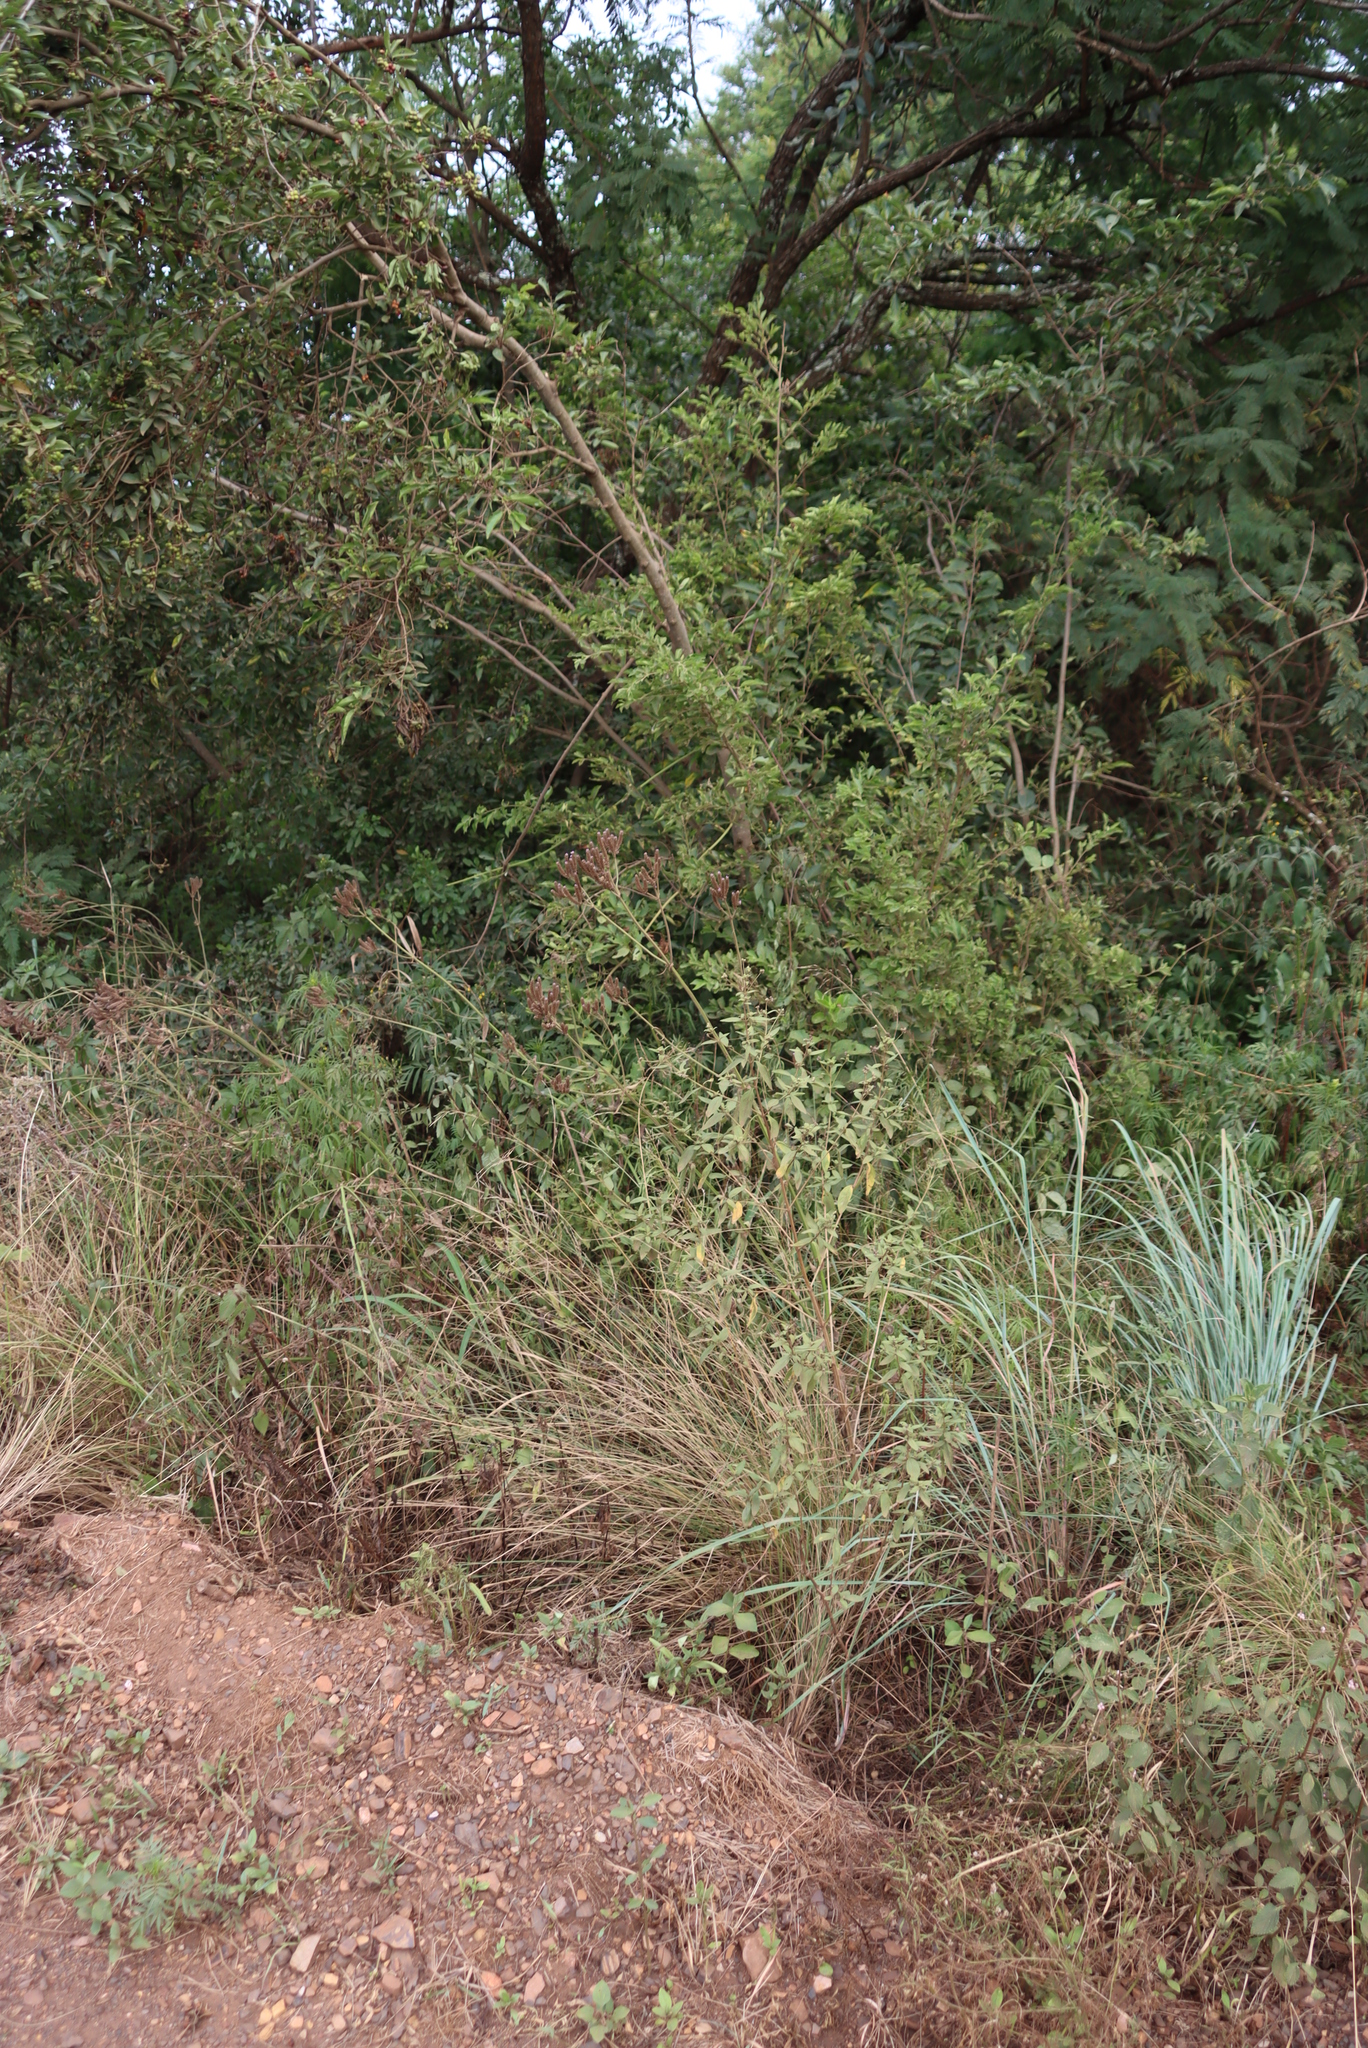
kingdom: Plantae
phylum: Tracheophyta
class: Magnoliopsida
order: Lamiales
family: Verbenaceae
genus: Verbena
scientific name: Verbena bonariensis
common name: Purpletop vervain
